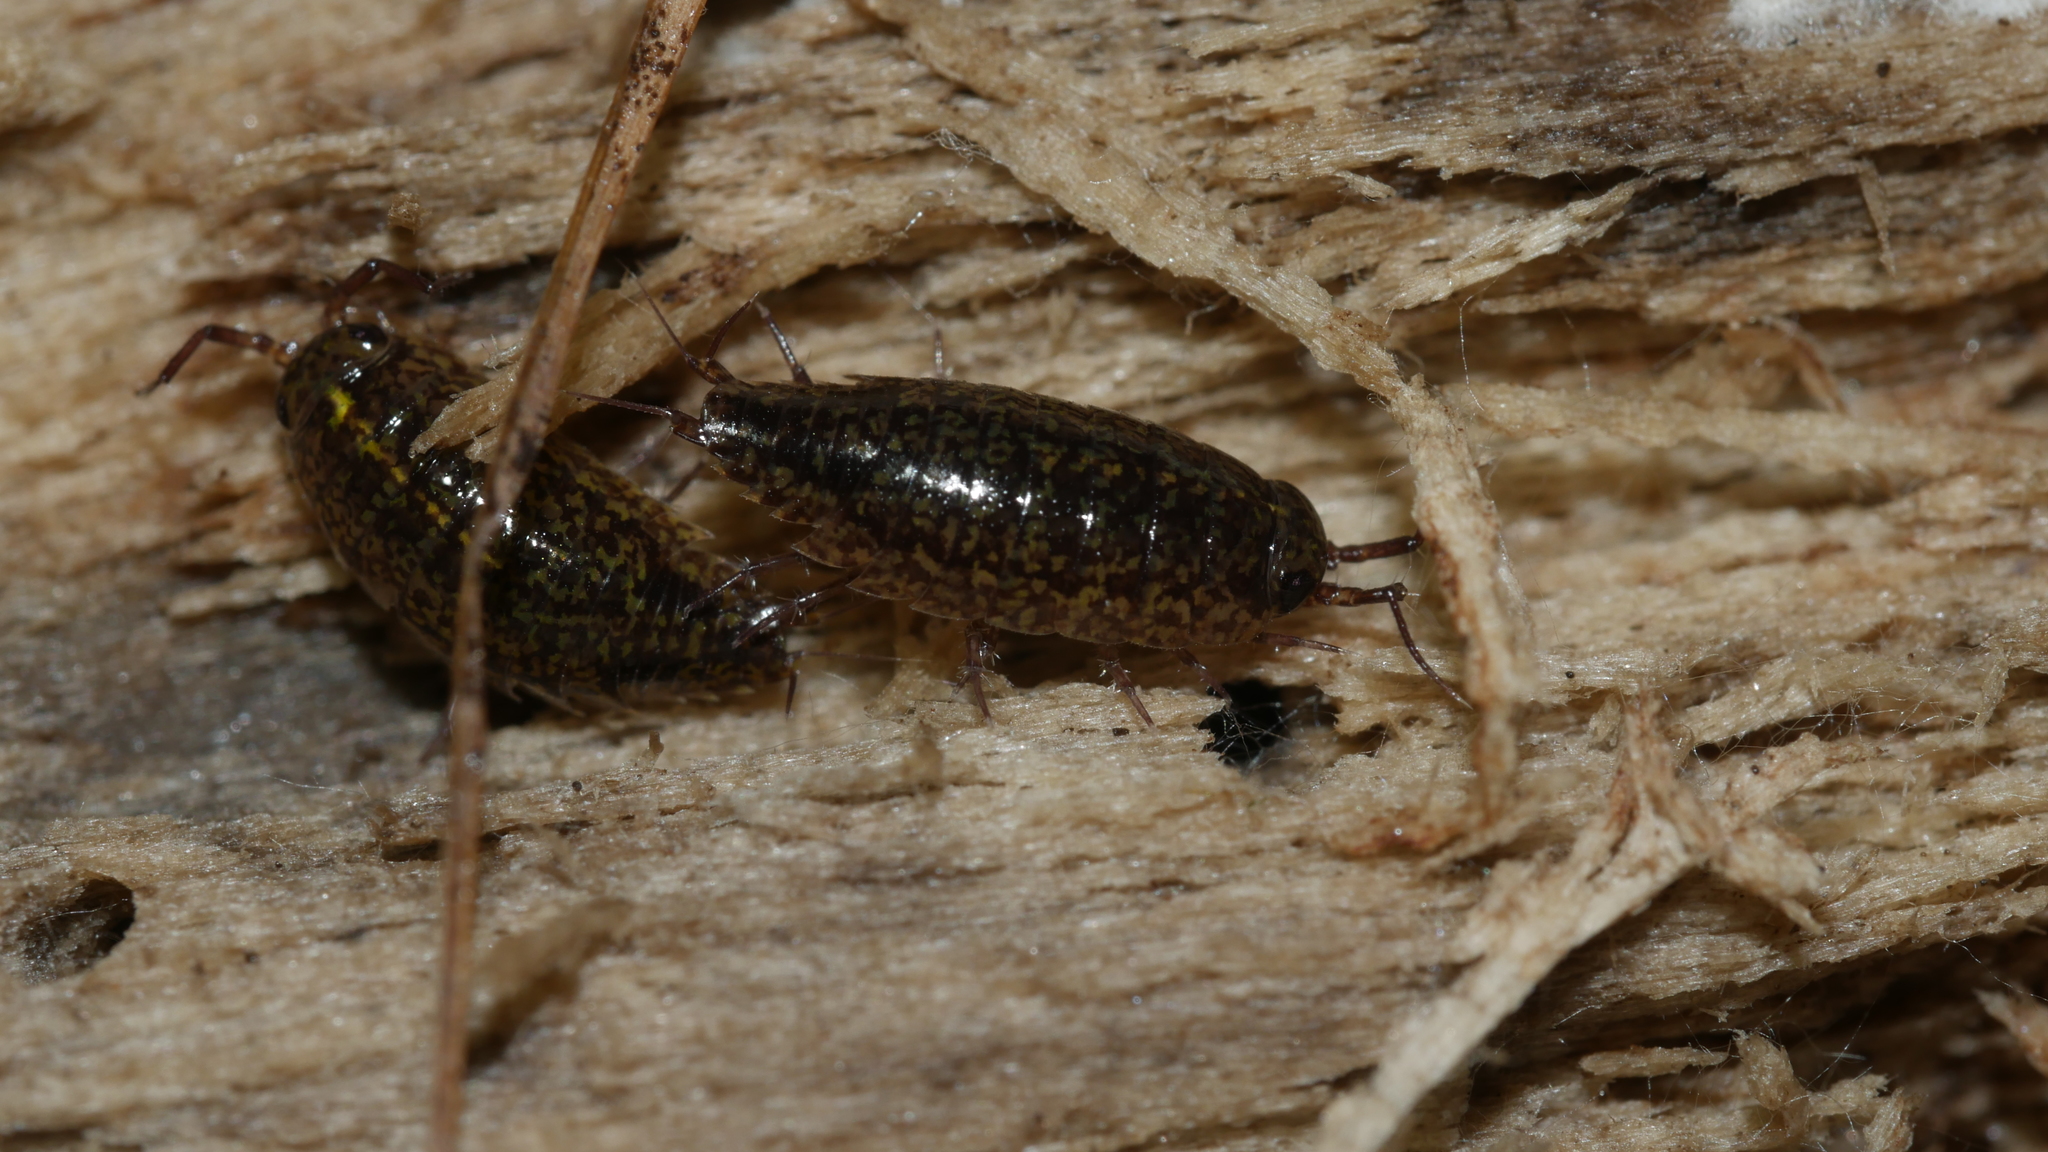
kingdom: Animalia
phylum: Arthropoda
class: Malacostraca
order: Isopoda
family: Ligiidae
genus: Ligidium
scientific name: Ligidium elrodii
